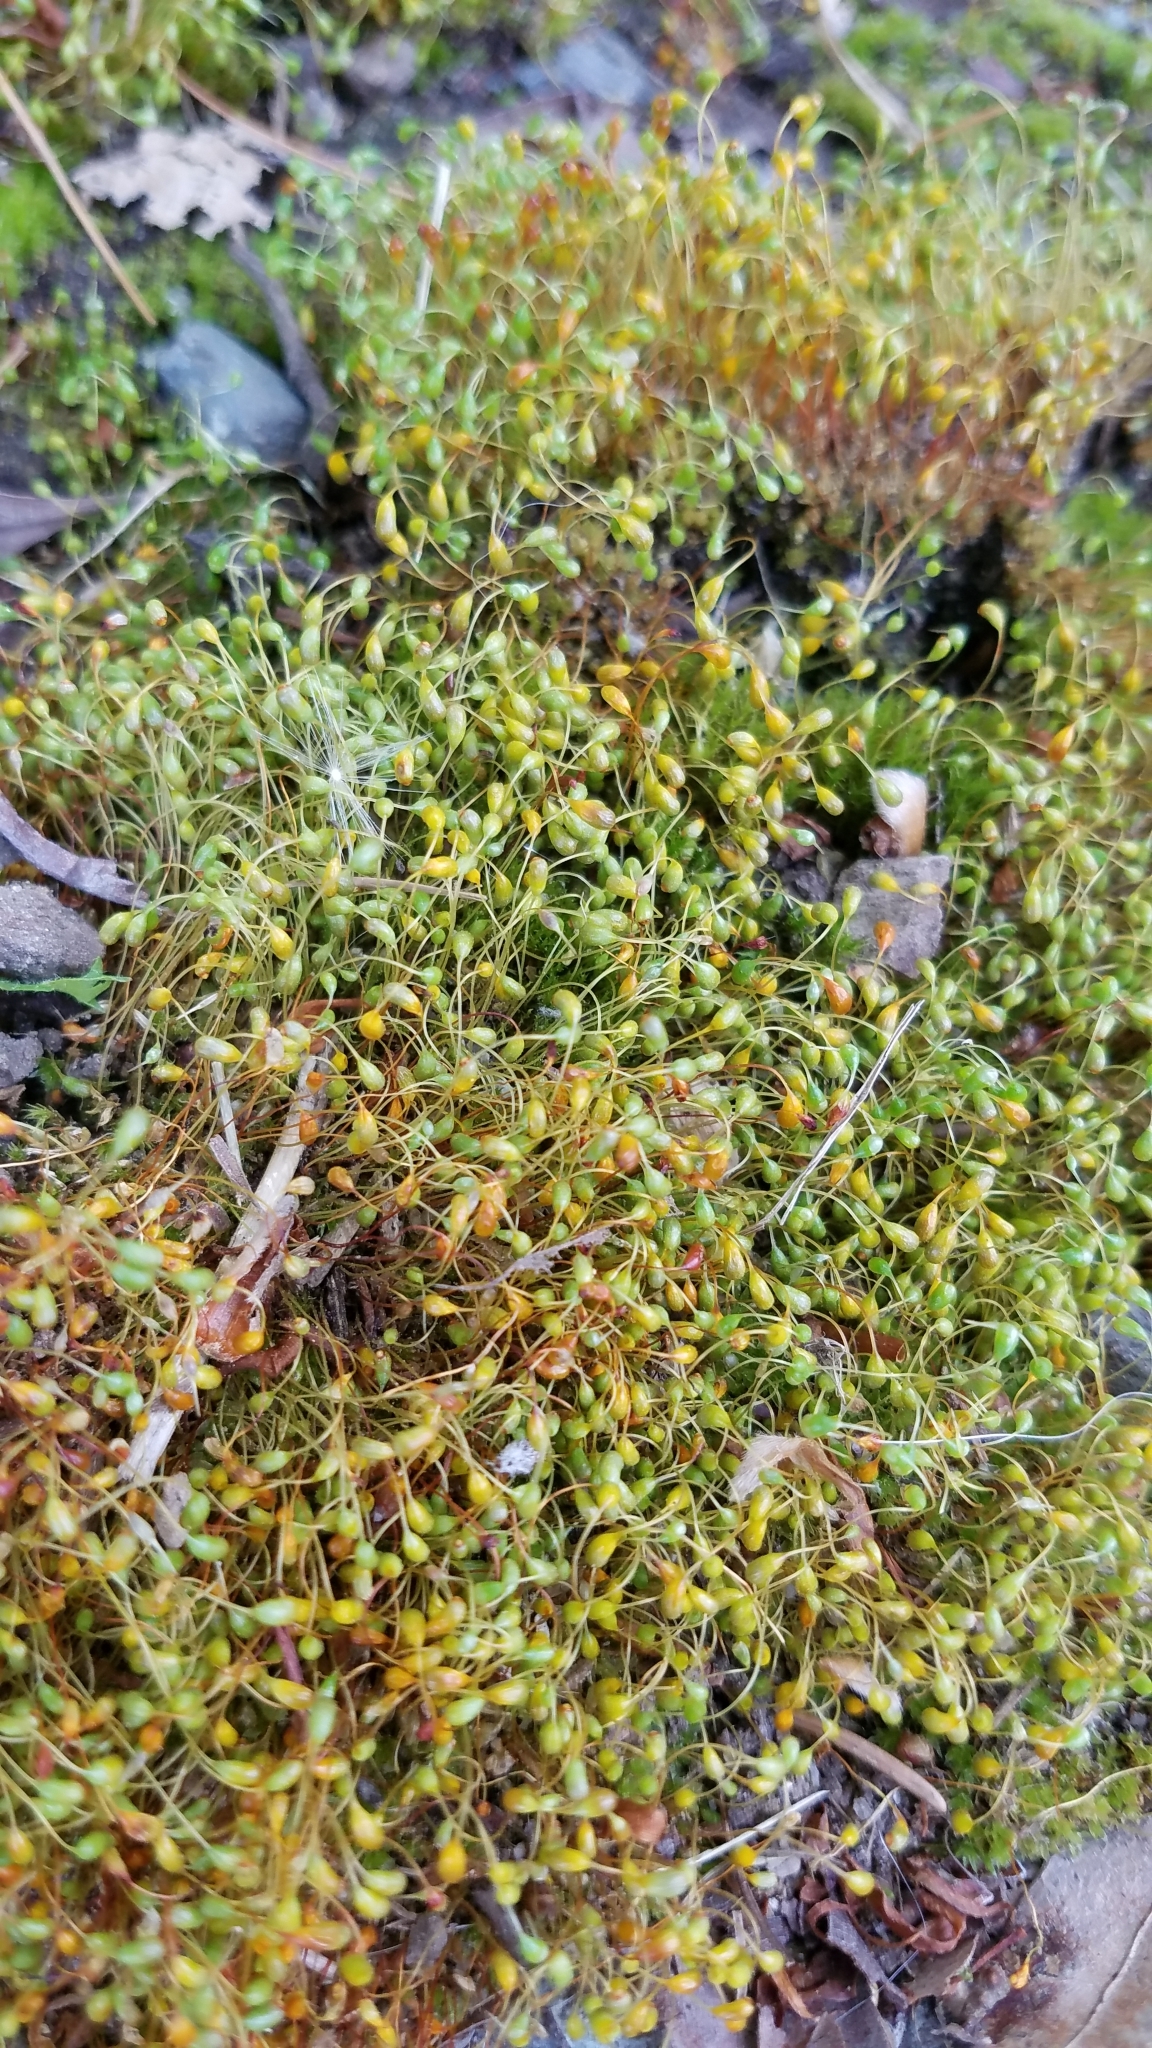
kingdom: Plantae
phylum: Bryophyta
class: Bryopsida
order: Funariales
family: Funariaceae
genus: Funaria
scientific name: Funaria hygrometrica
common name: Common cord moss
